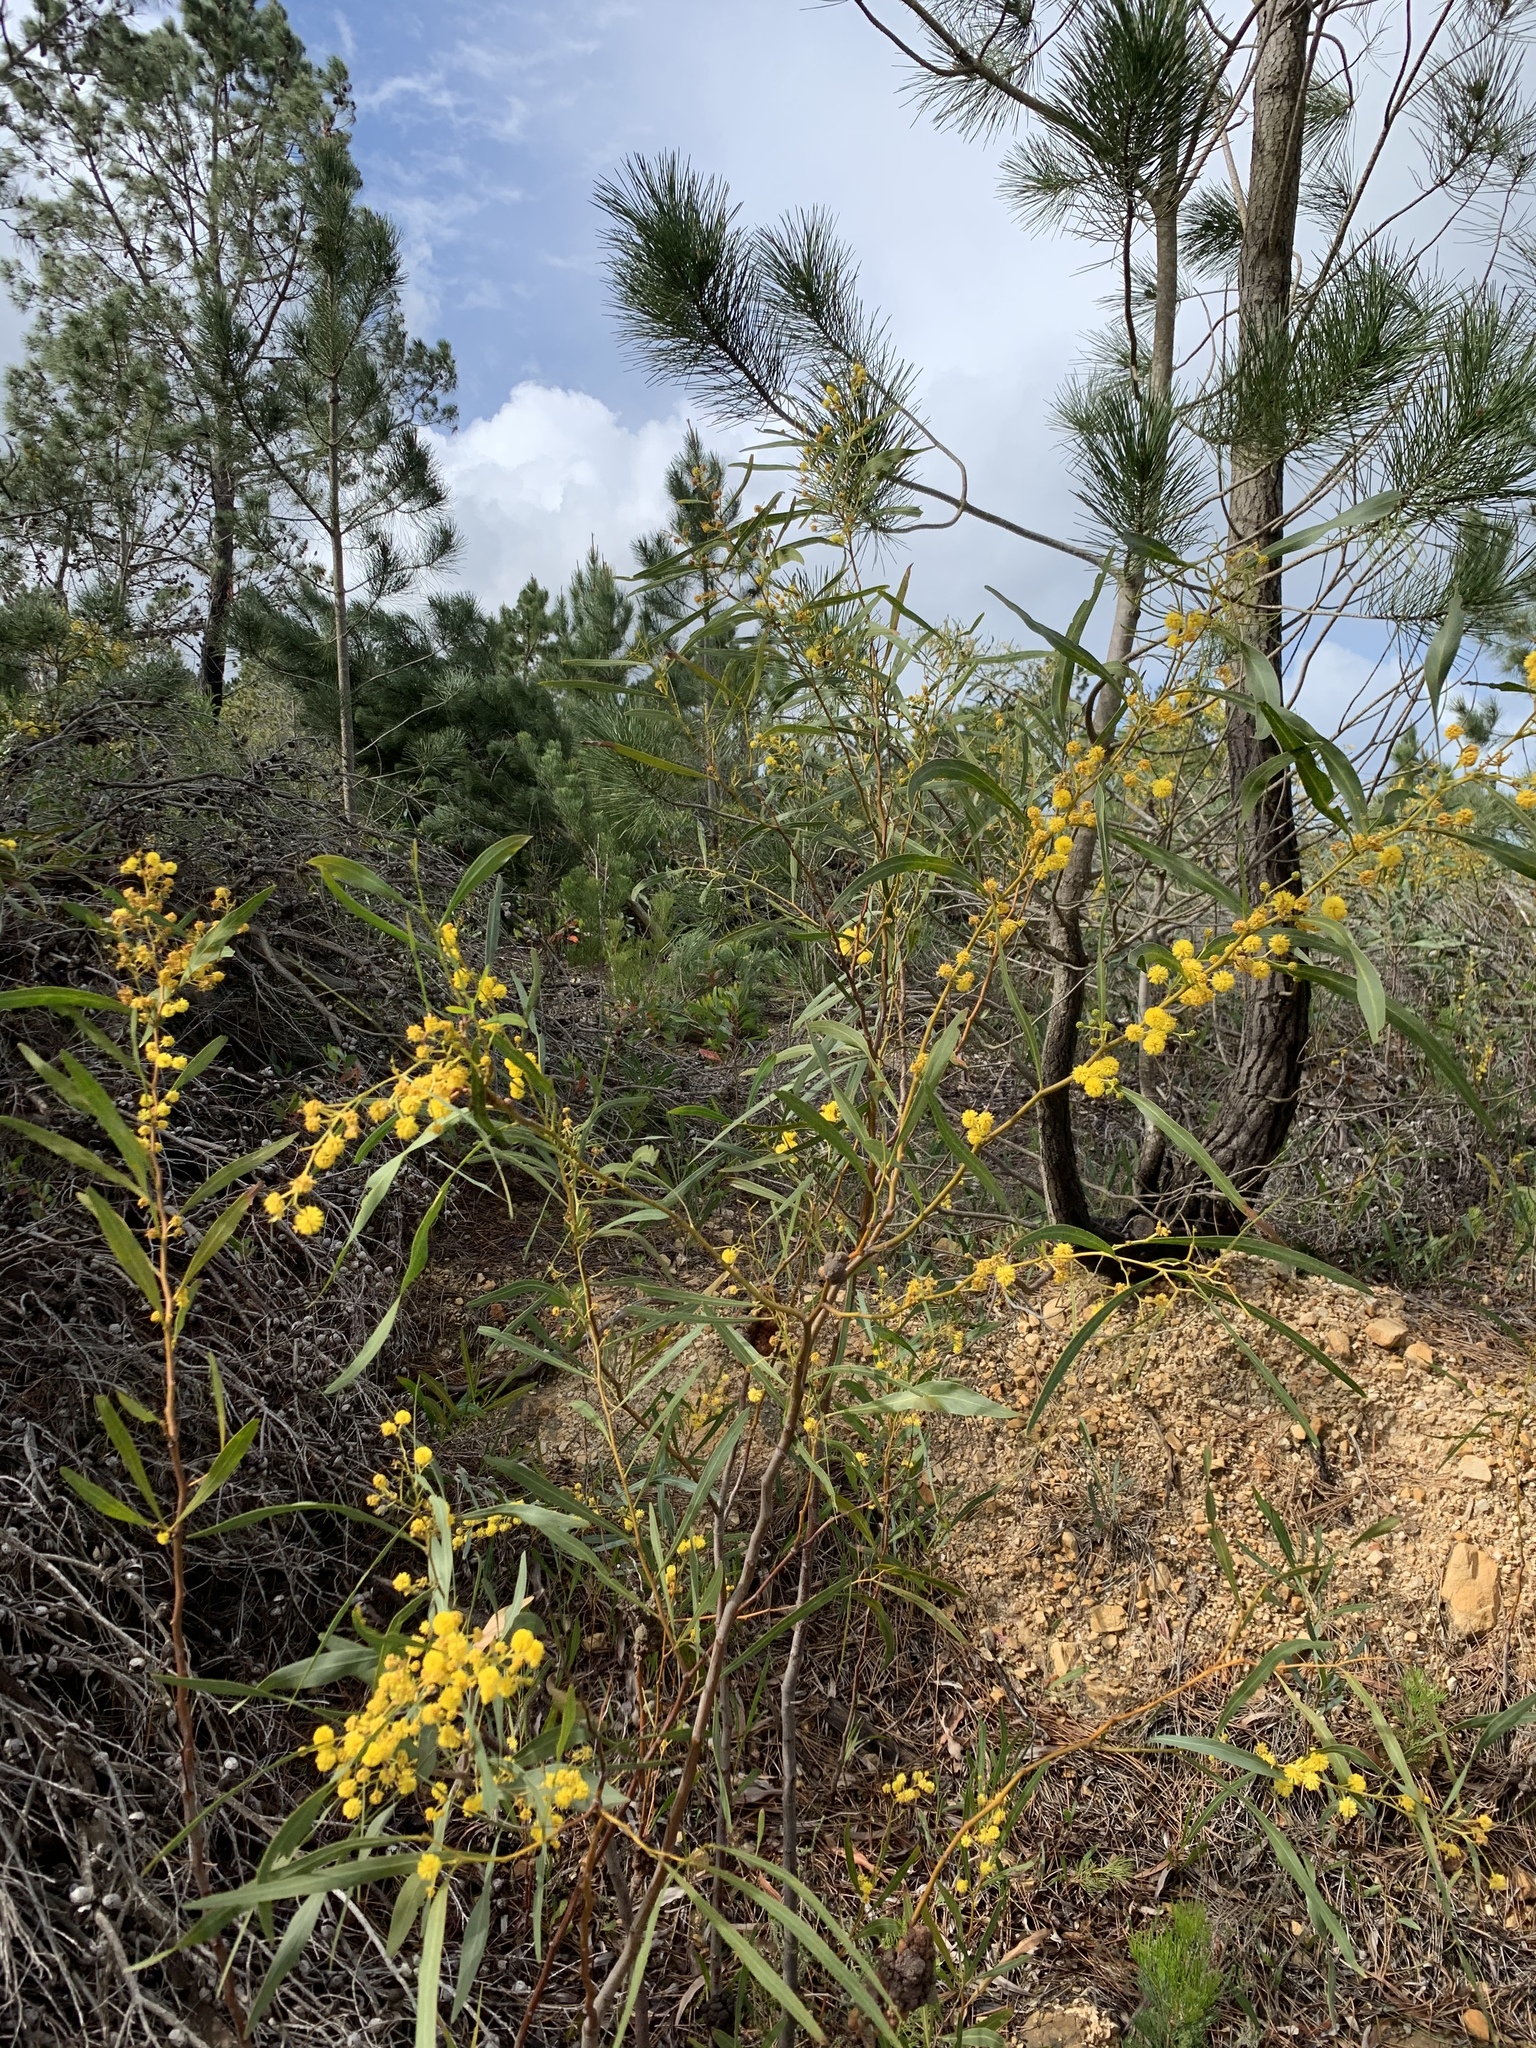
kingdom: Plantae
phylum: Tracheophyta
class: Magnoliopsida
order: Fabales
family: Fabaceae
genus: Acacia
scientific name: Acacia saligna
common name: Orange wattle
